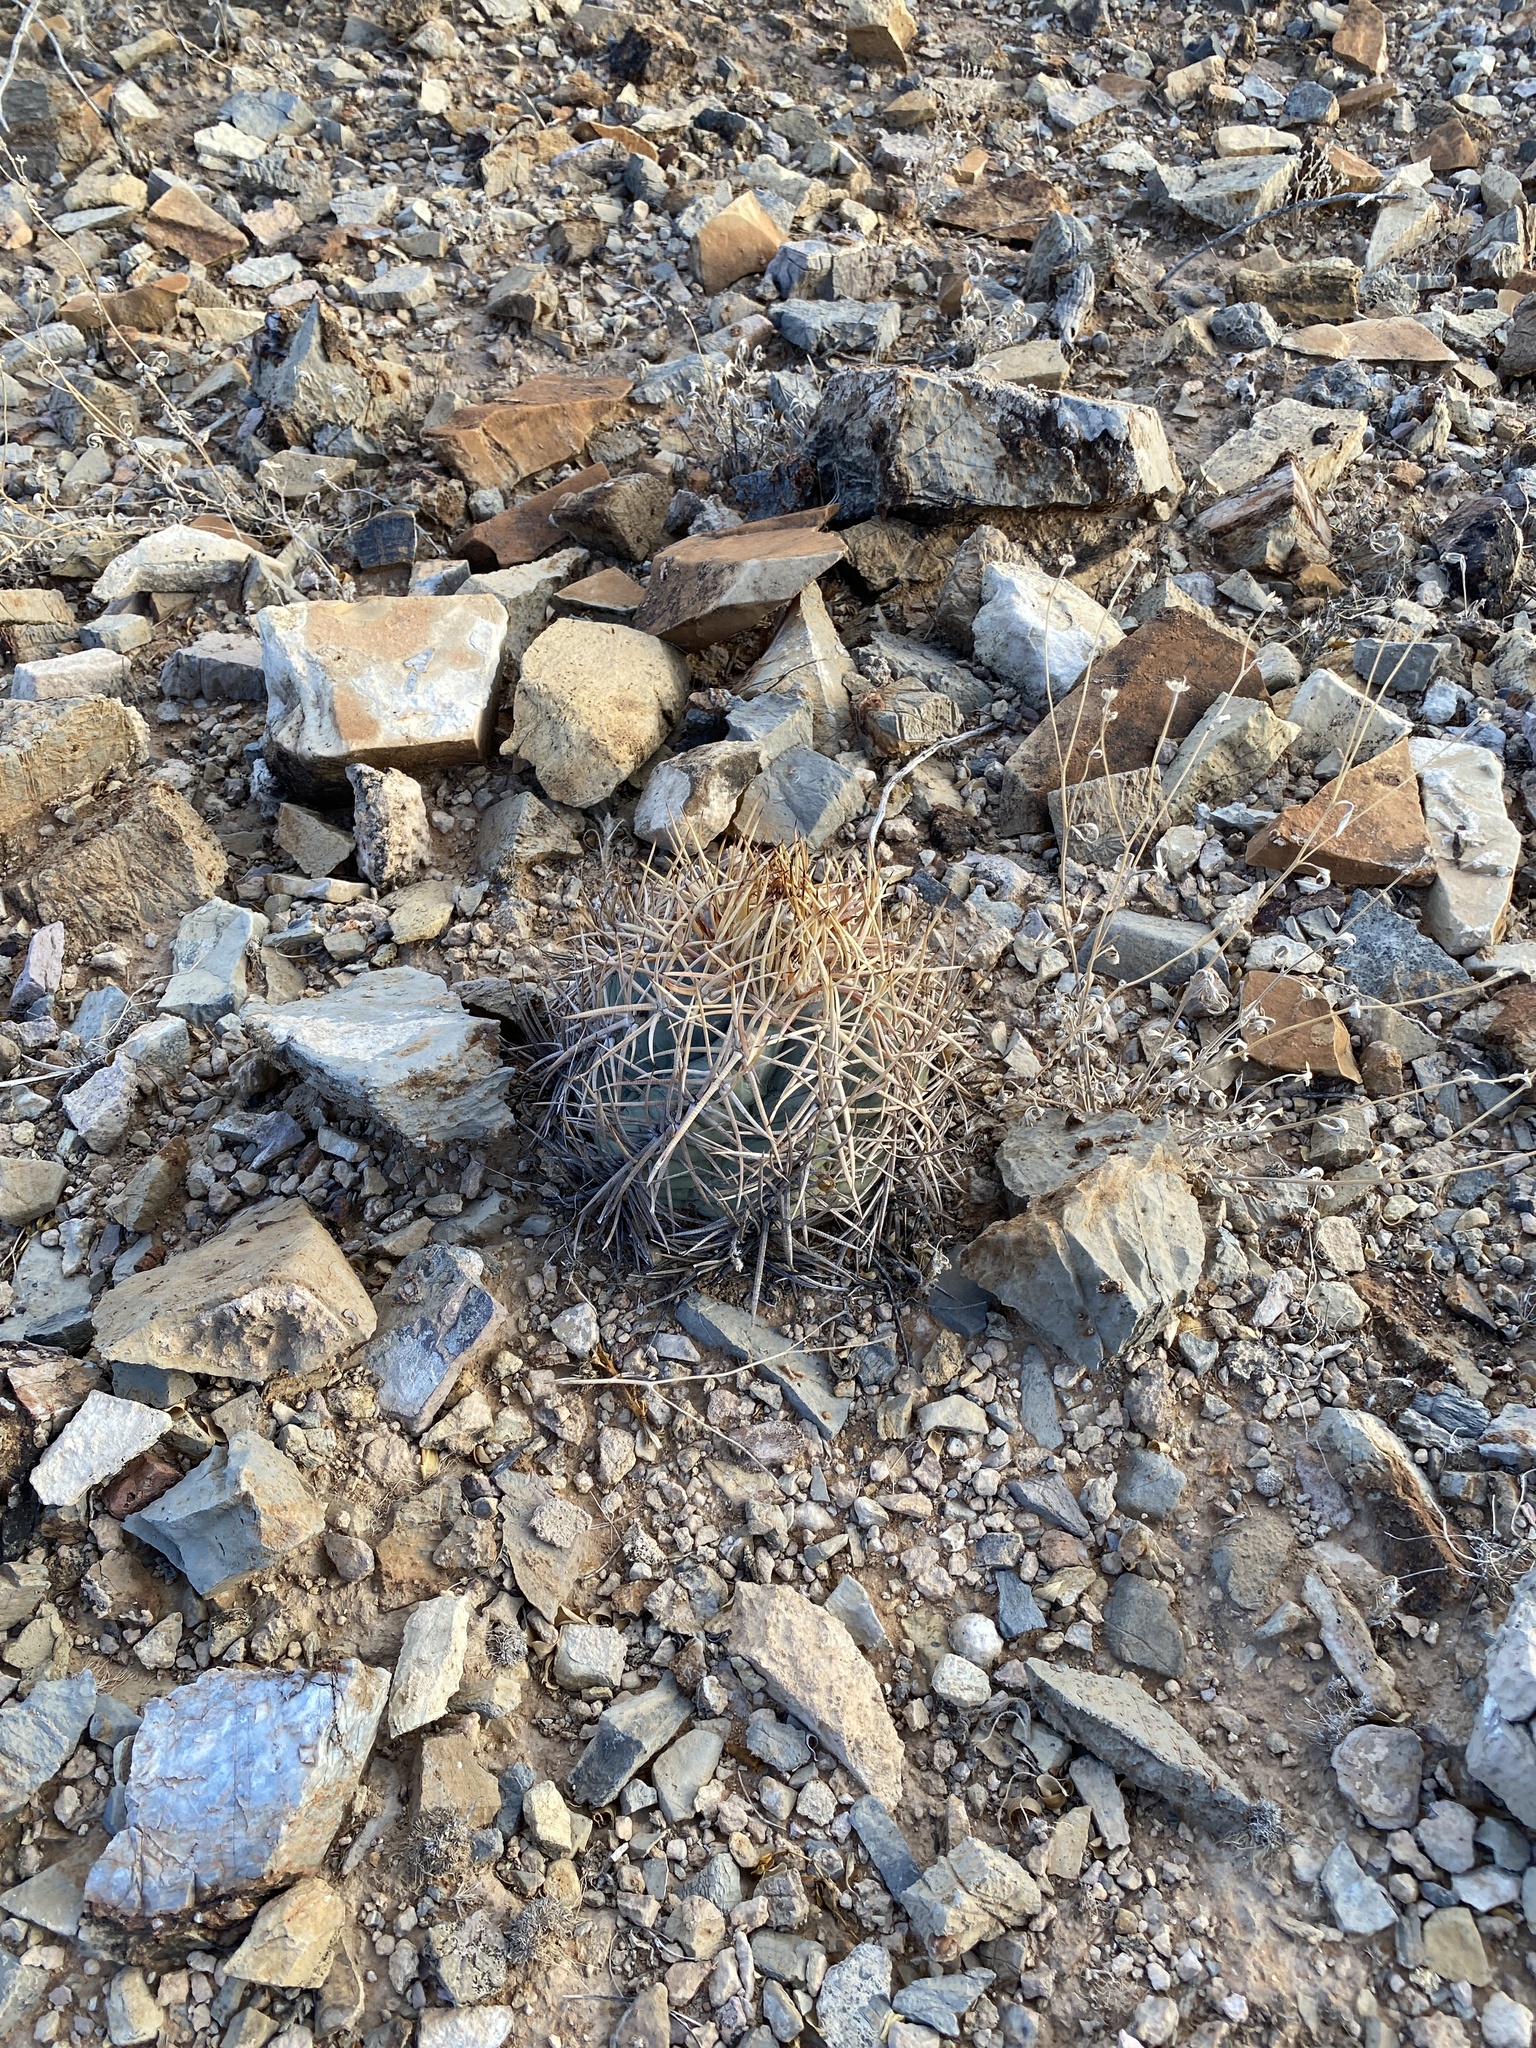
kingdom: Plantae
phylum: Tracheophyta
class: Magnoliopsida
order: Caryophyllales
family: Cactaceae
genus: Echinocactus
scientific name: Echinocactus horizonthalonius
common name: Devilshead
